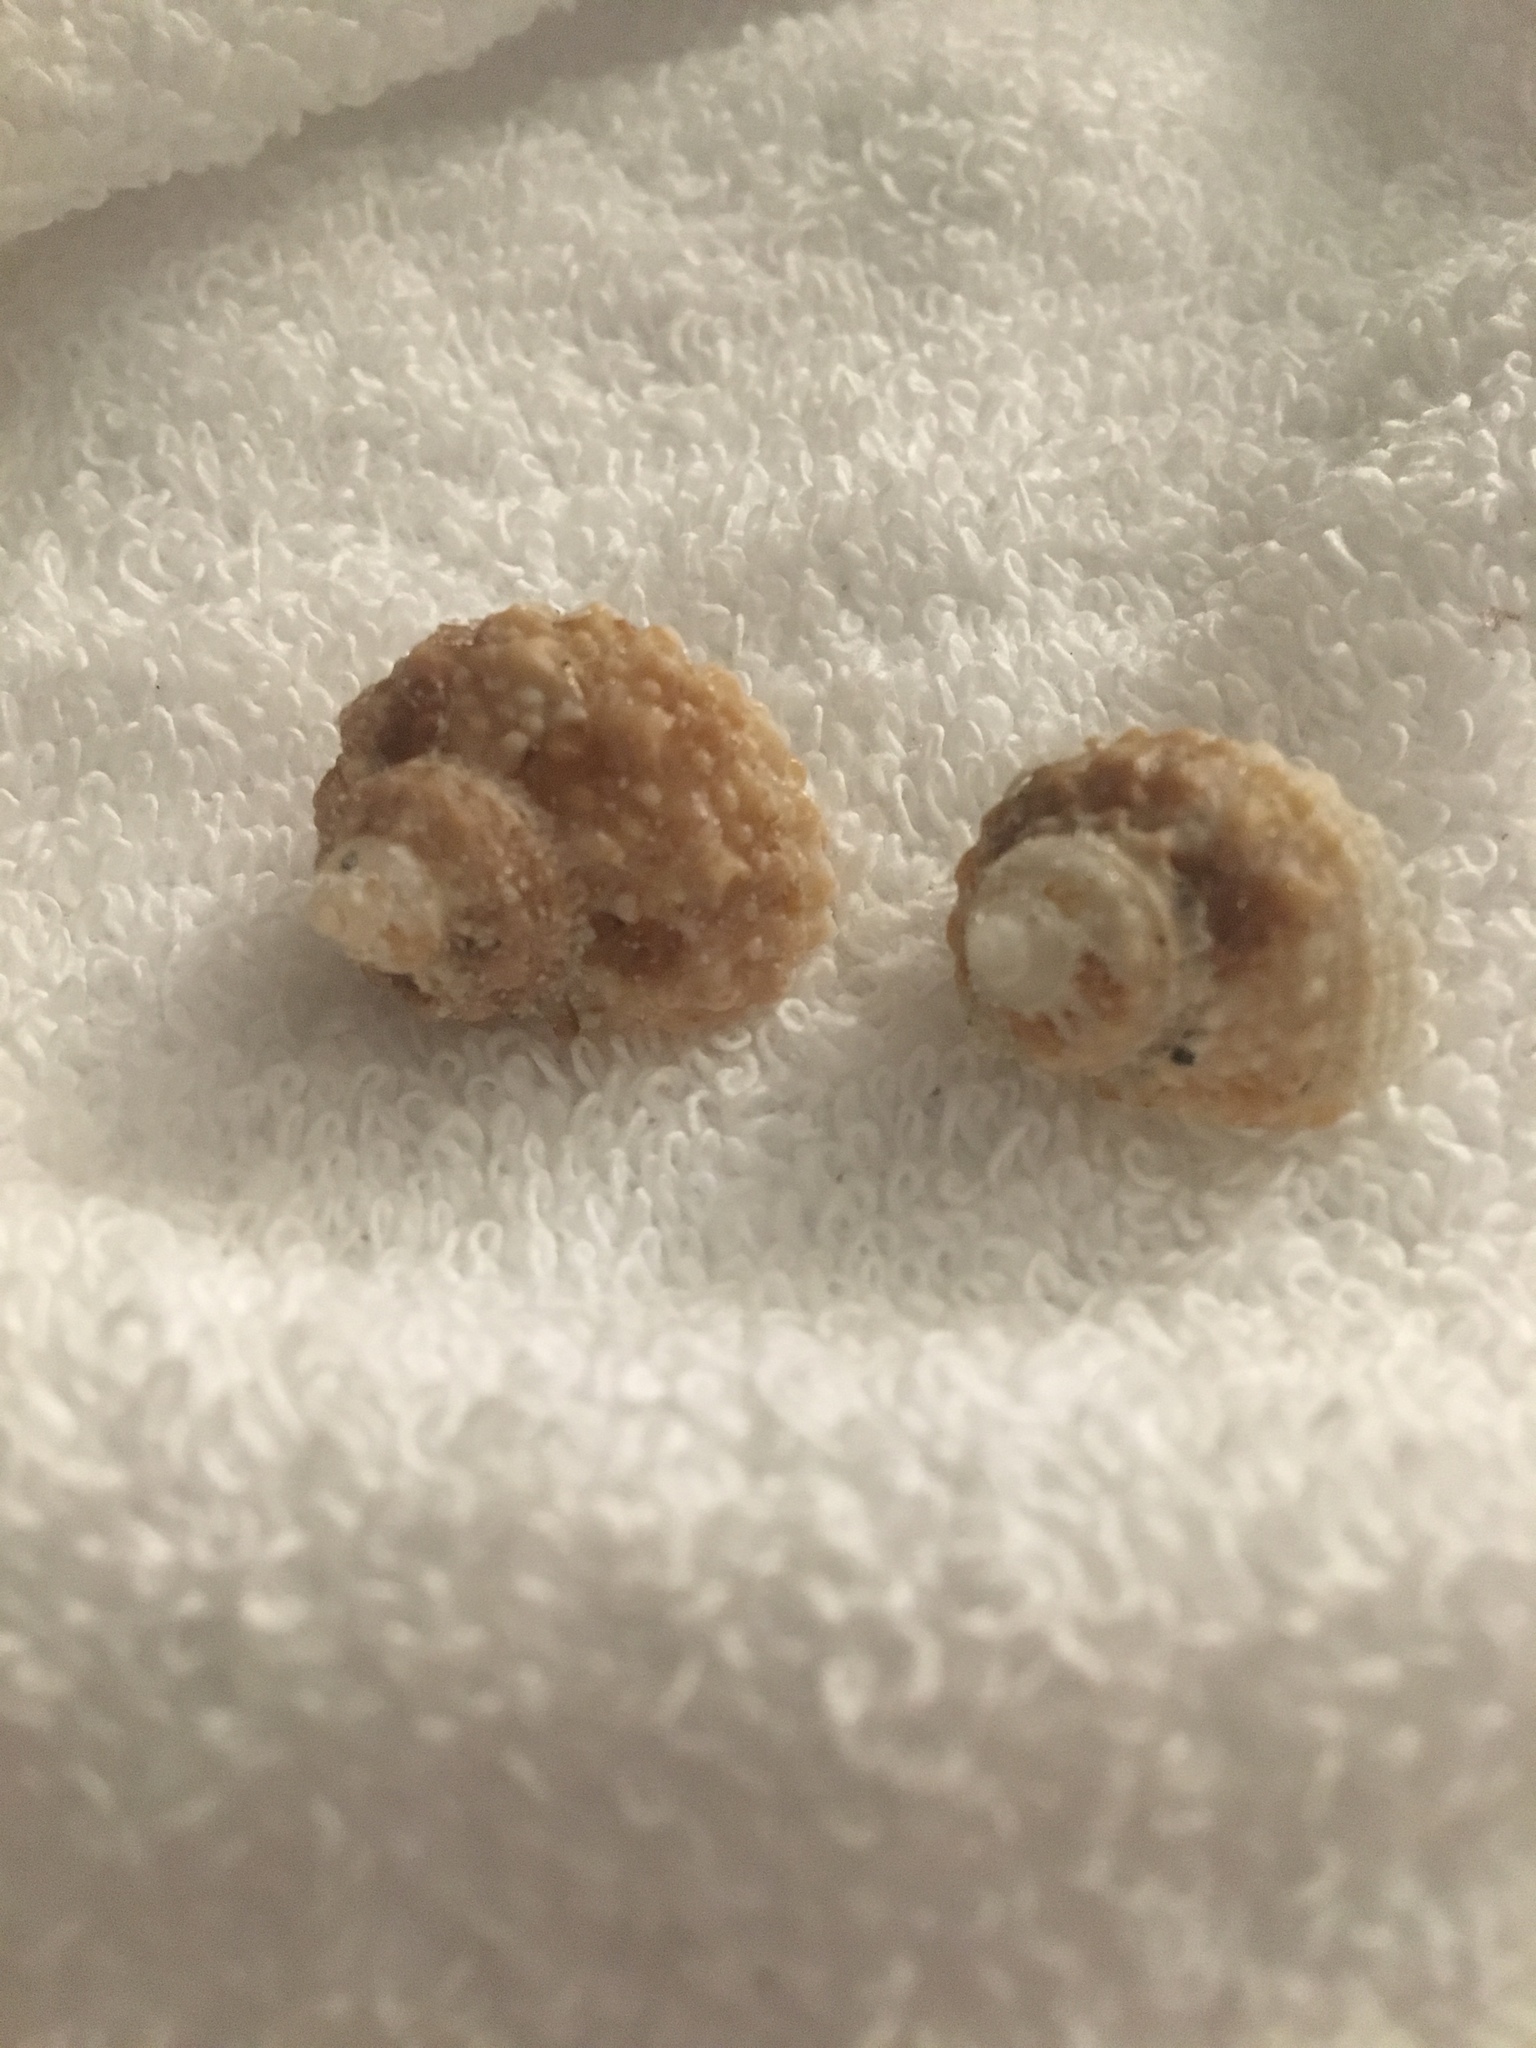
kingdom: Animalia
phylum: Mollusca
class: Gastropoda
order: Trochida
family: Turbinidae
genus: Turbo
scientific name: Turbo castanea
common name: Chestnut turban
